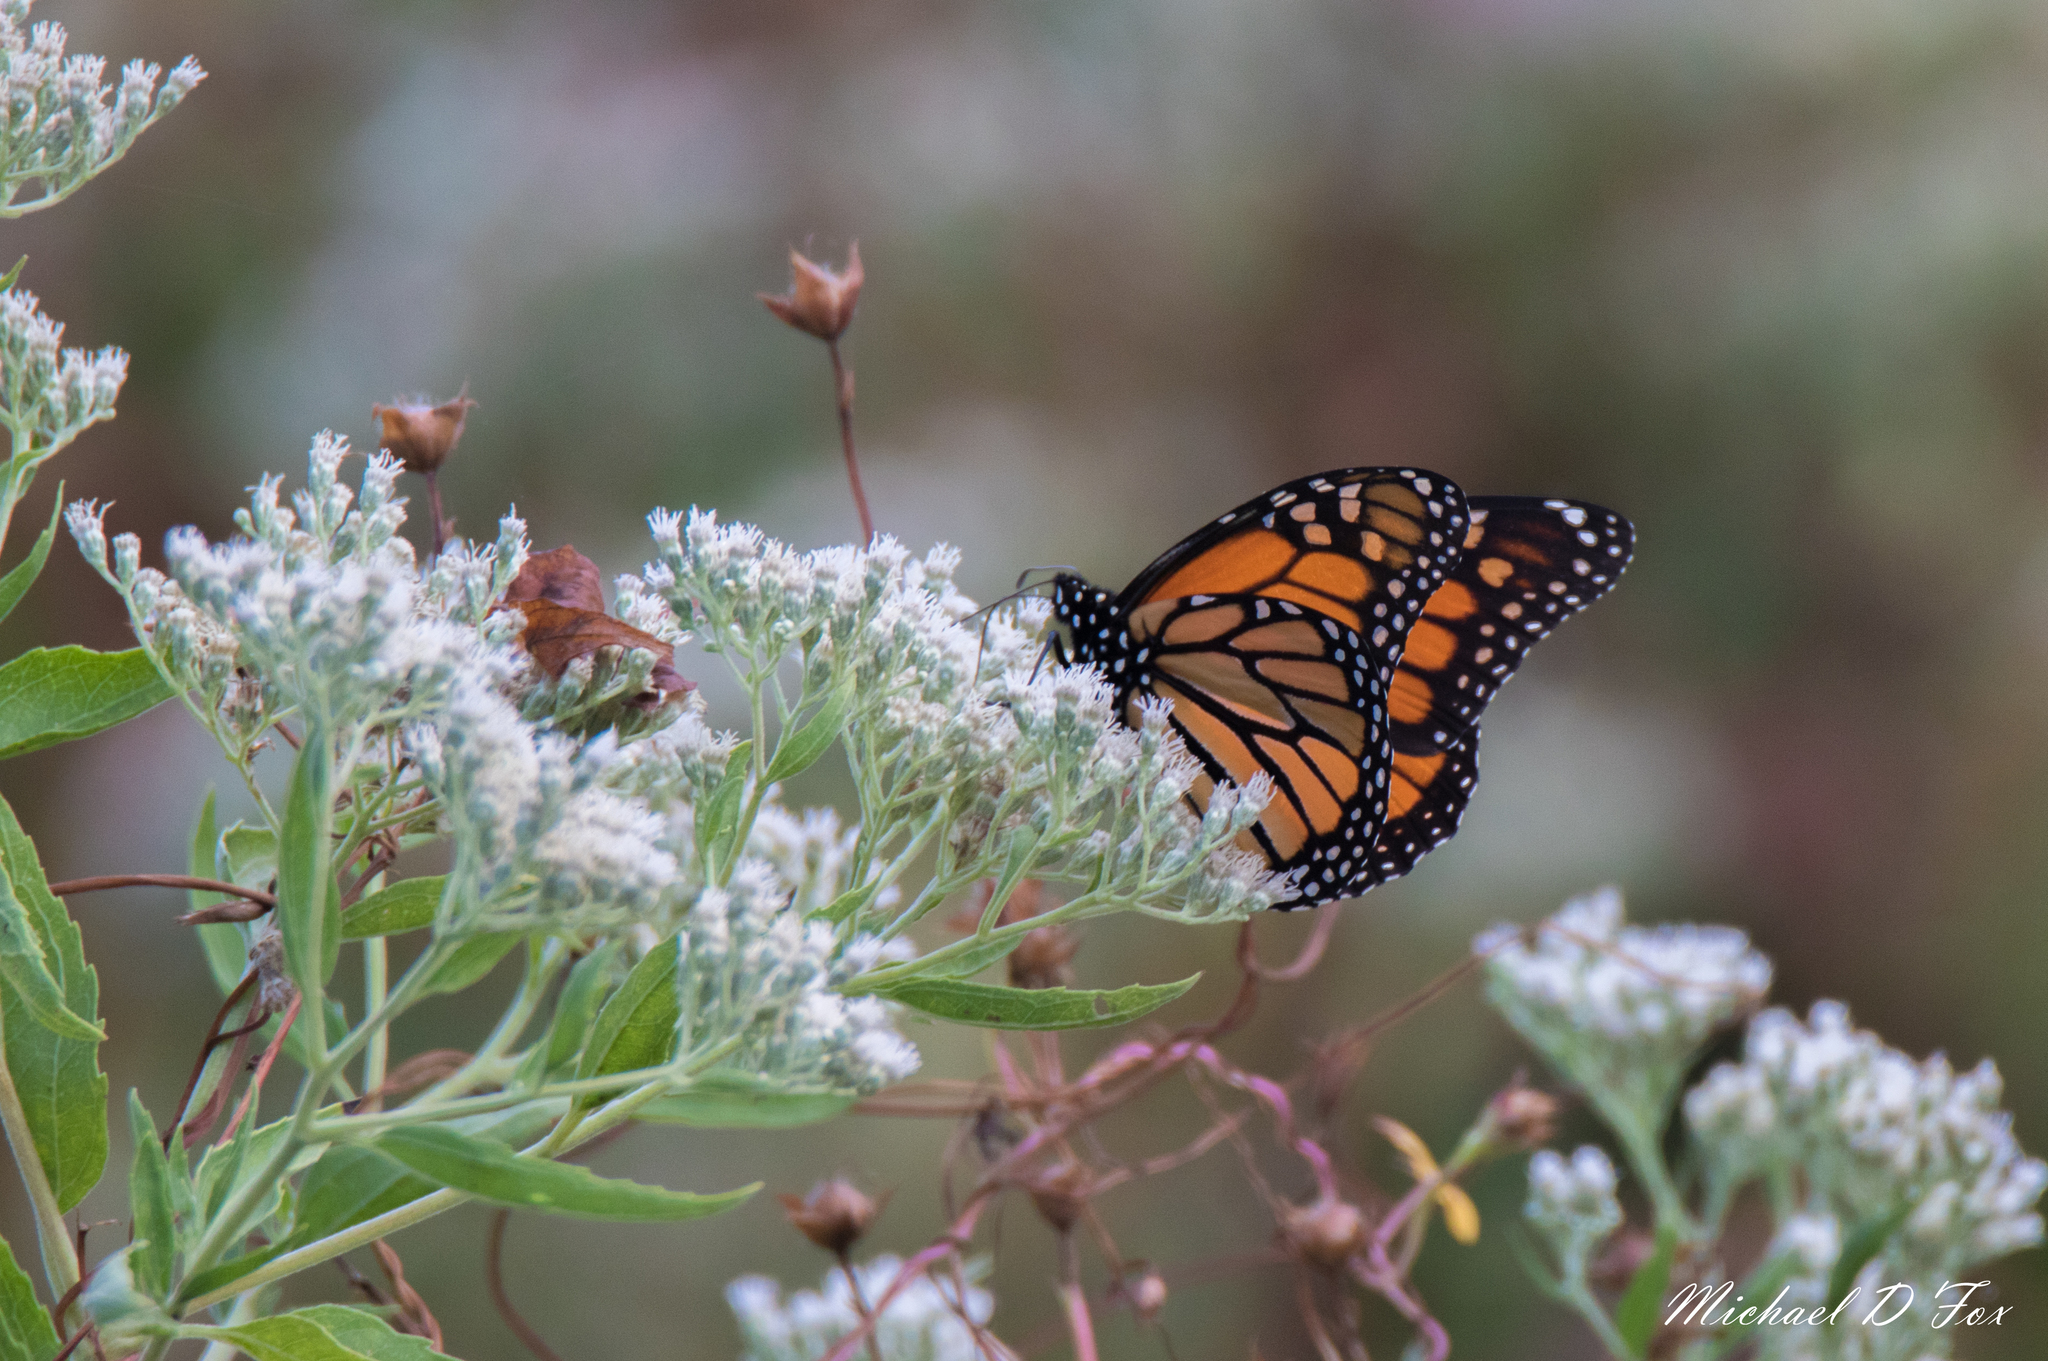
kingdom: Animalia
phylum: Arthropoda
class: Insecta
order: Lepidoptera
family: Nymphalidae
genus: Danaus
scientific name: Danaus plexippus
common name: Monarch
